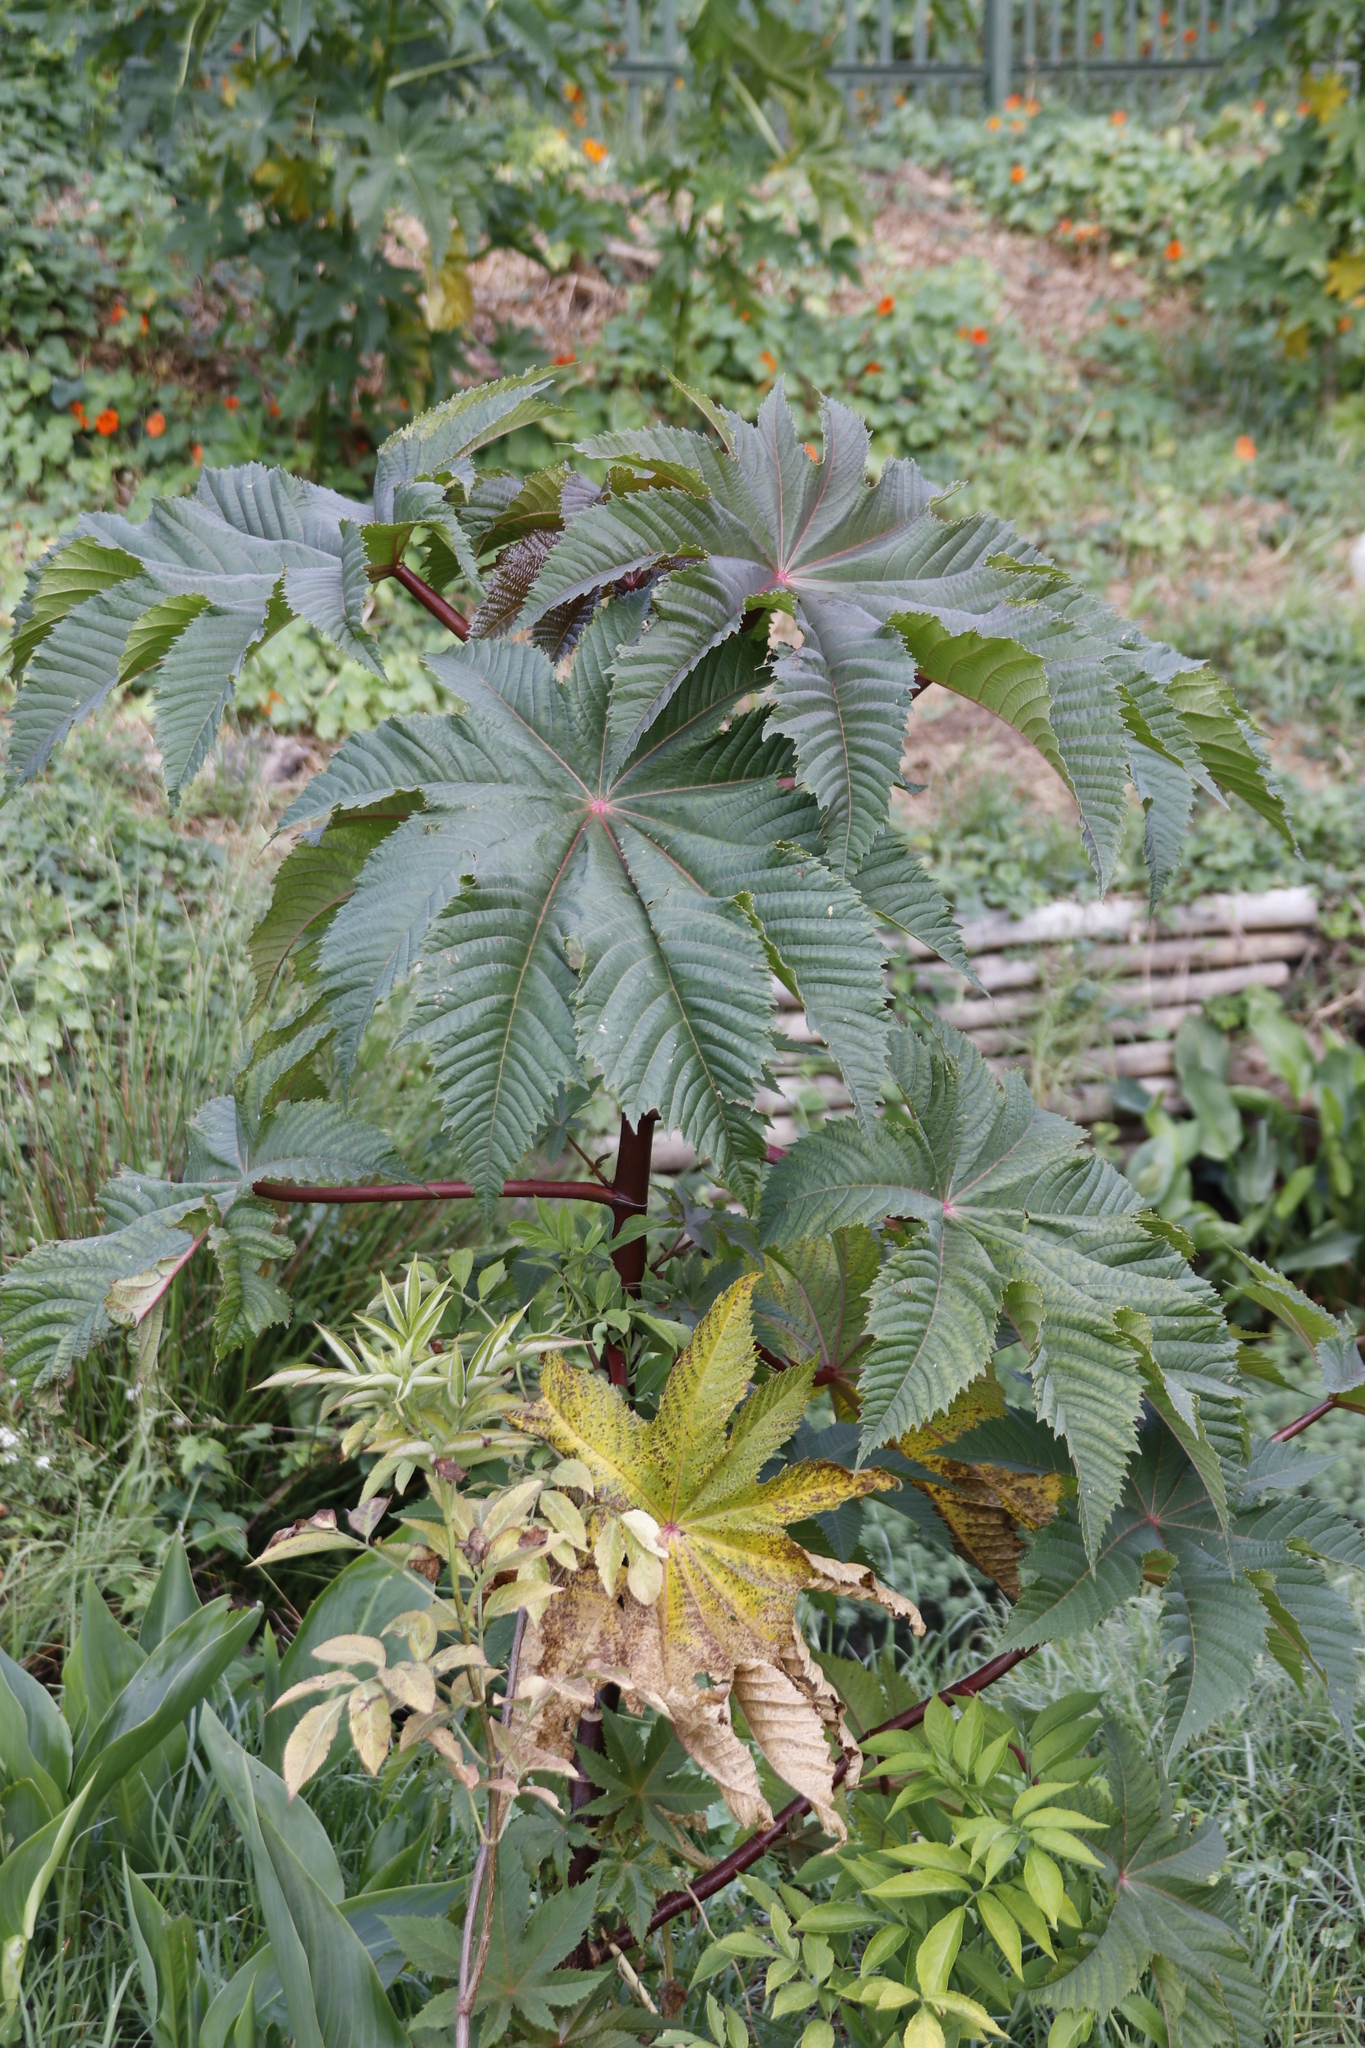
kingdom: Plantae
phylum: Tracheophyta
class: Magnoliopsida
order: Malpighiales
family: Euphorbiaceae
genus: Ricinus
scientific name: Ricinus communis
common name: Castor-oil-plant
